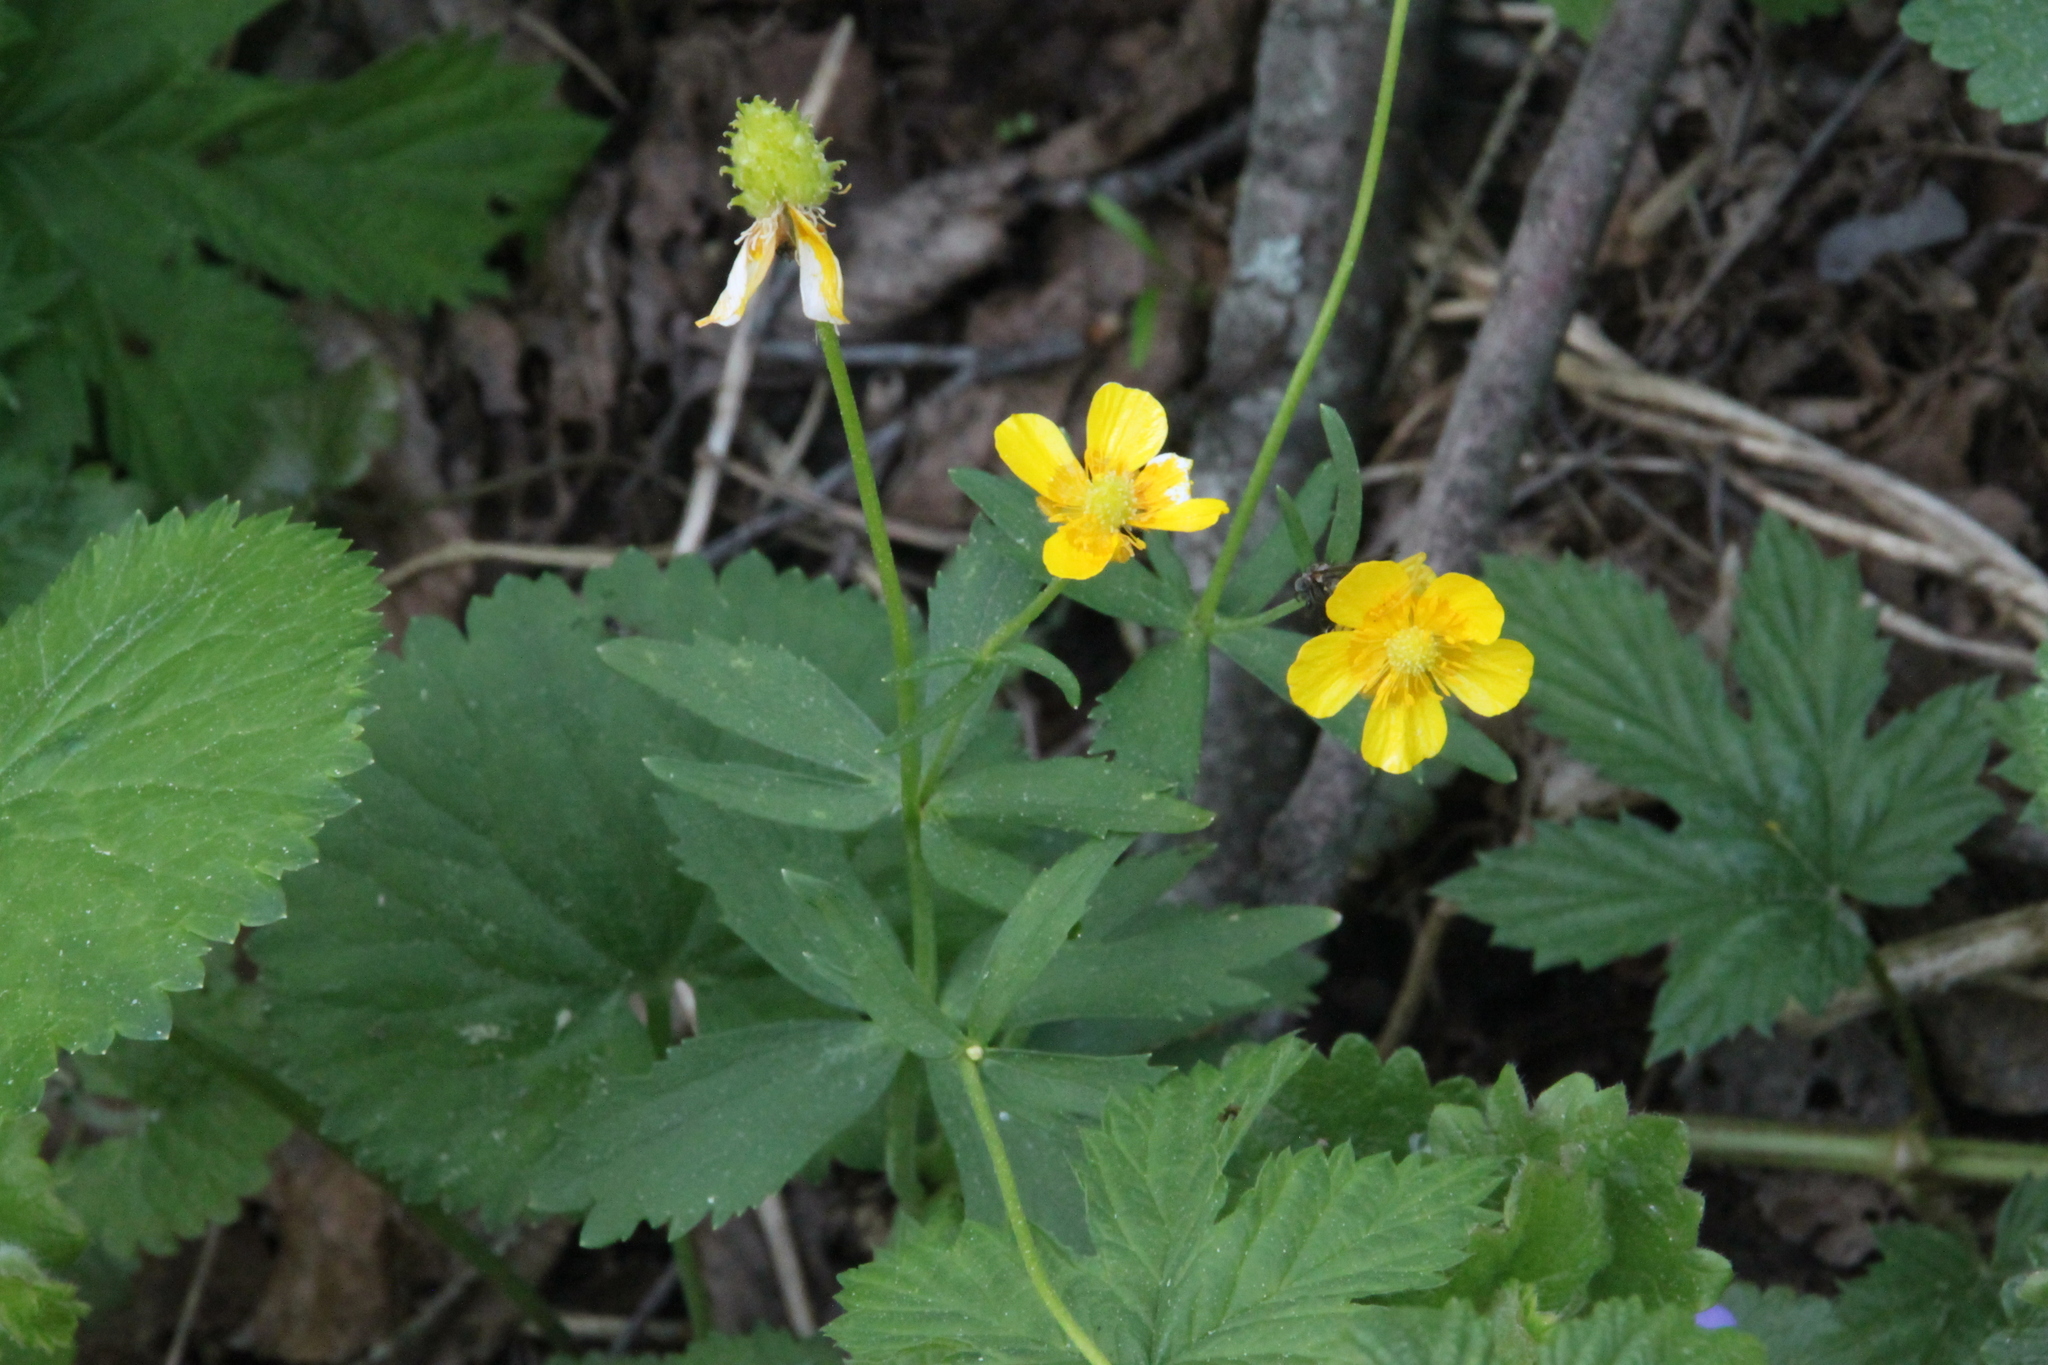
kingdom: Plantae
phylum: Tracheophyta
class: Magnoliopsida
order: Ranunculales
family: Ranunculaceae
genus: Ranunculus
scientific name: Ranunculus cassubicus
